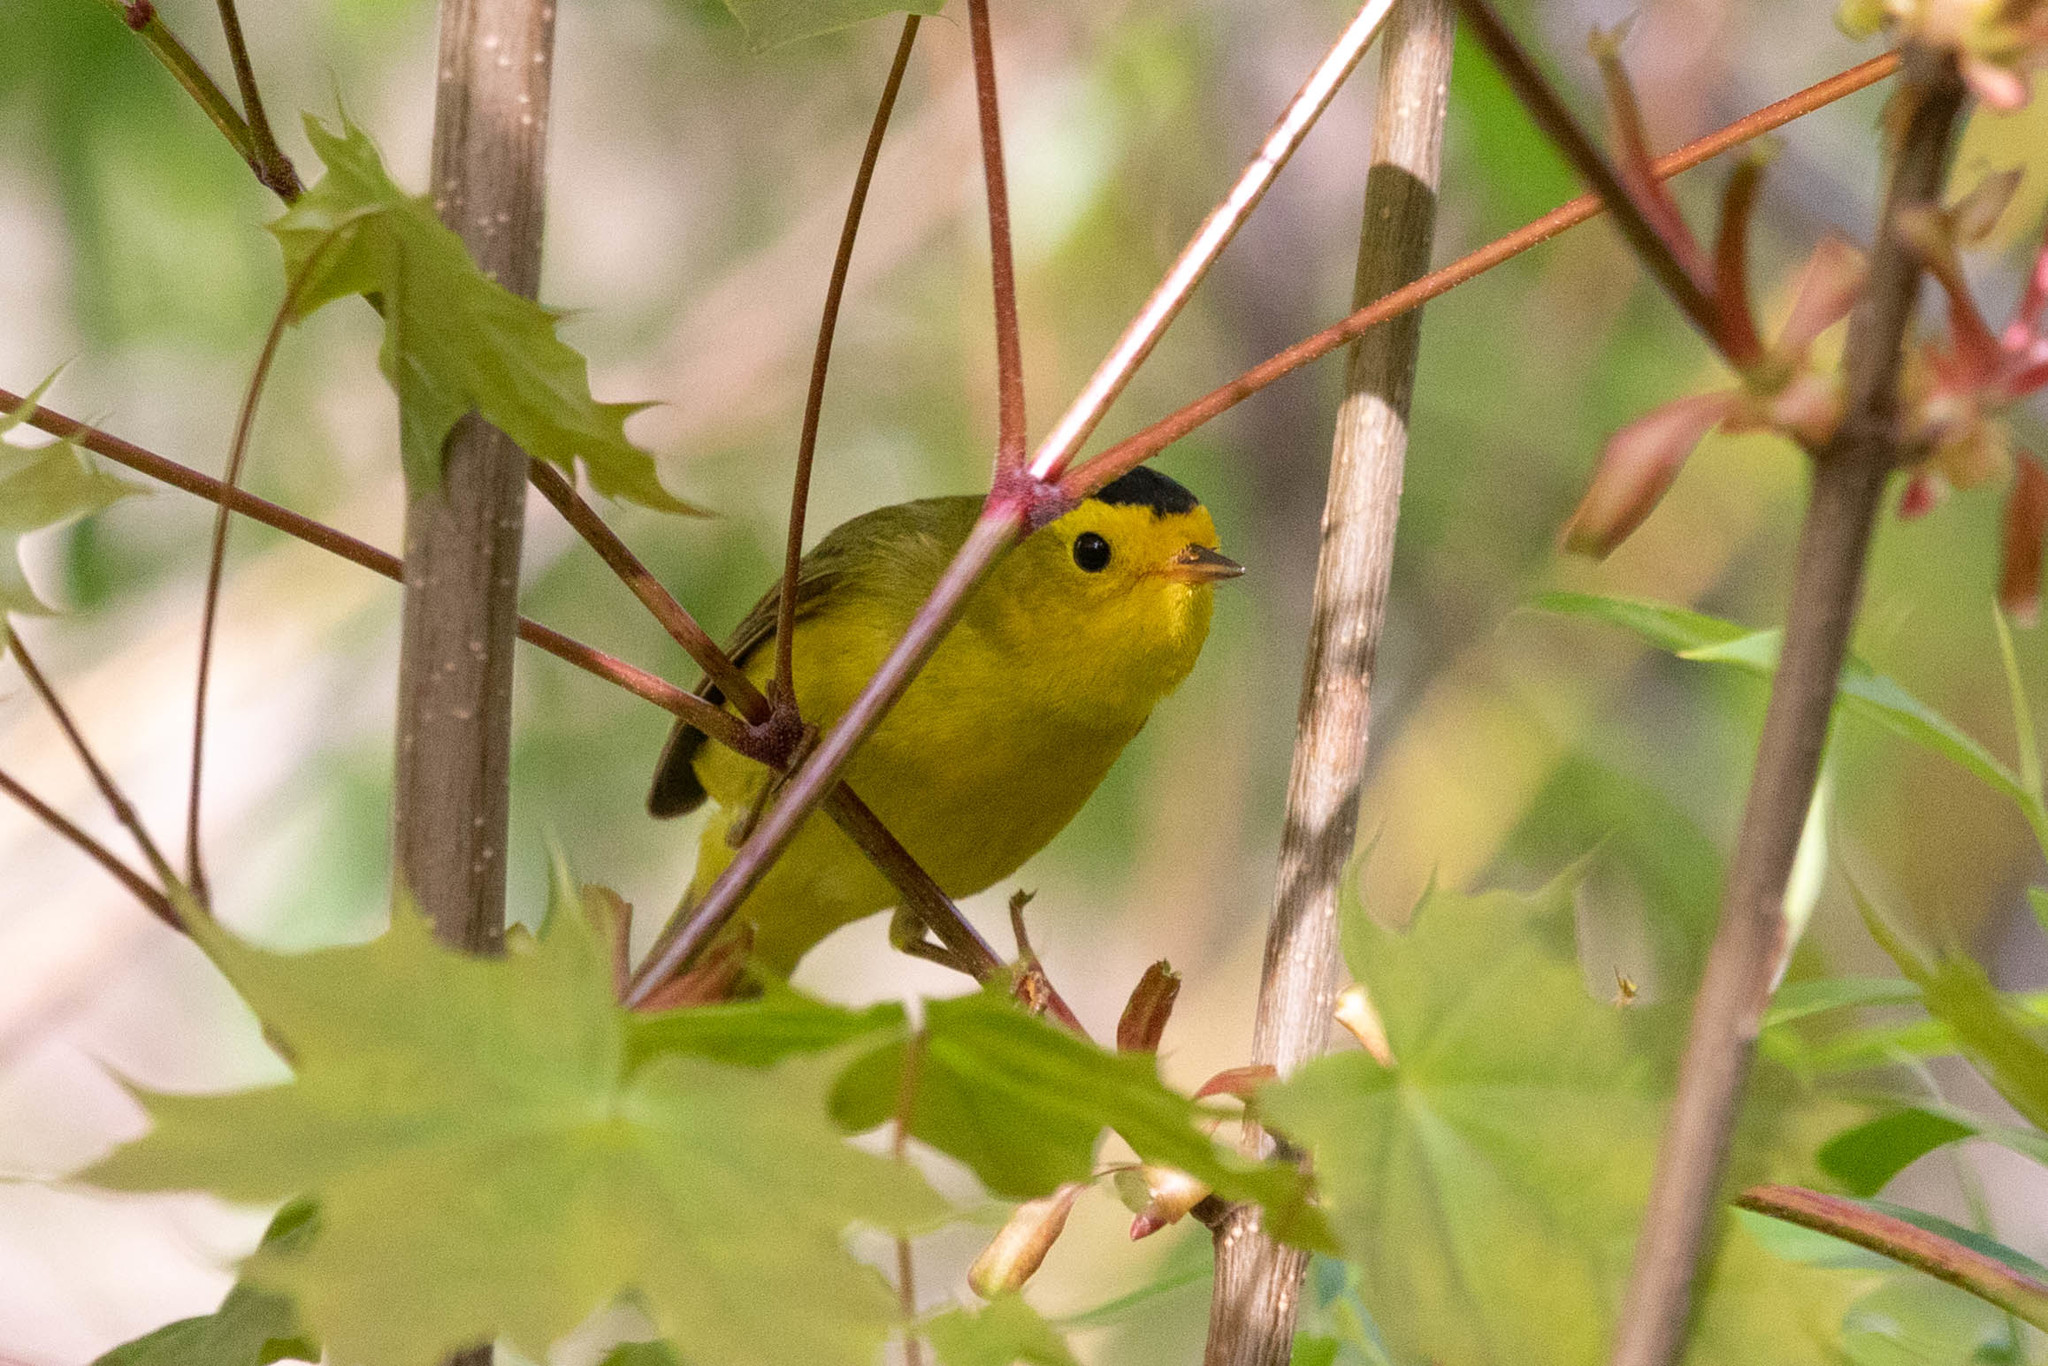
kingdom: Animalia
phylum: Chordata
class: Aves
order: Passeriformes
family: Parulidae
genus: Cardellina
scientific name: Cardellina pusilla
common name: Wilson's warbler
